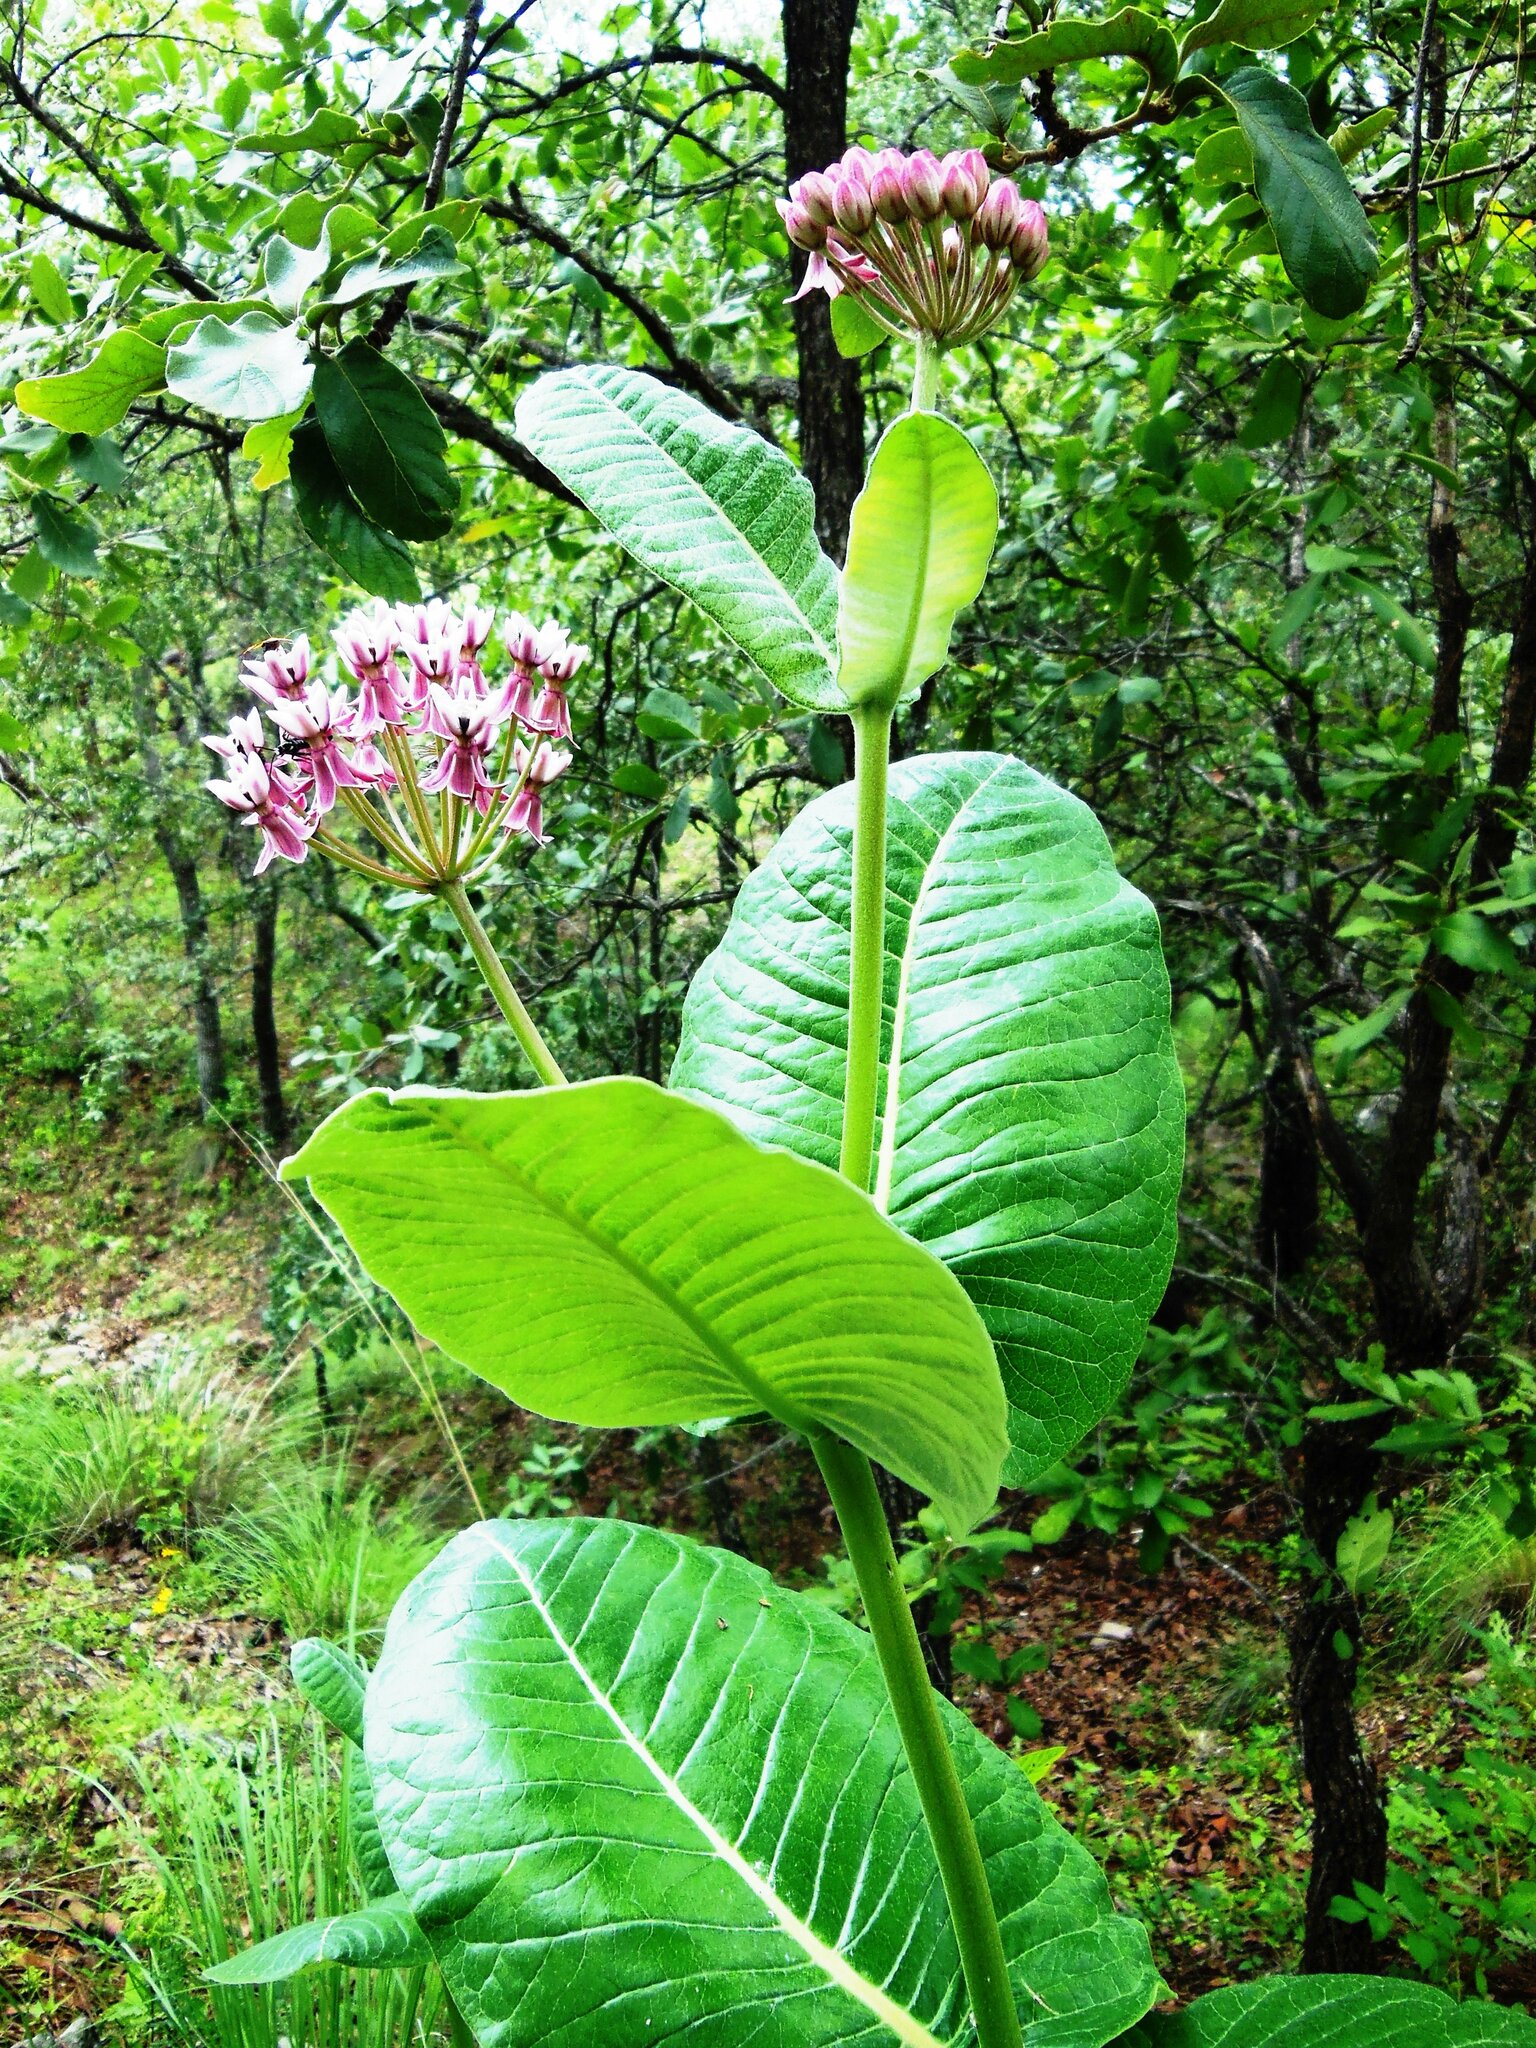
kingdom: Plantae
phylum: Tracheophyta
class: Magnoliopsida
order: Gentianales
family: Apocynaceae
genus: Asclepias
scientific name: Asclepias otarioides
